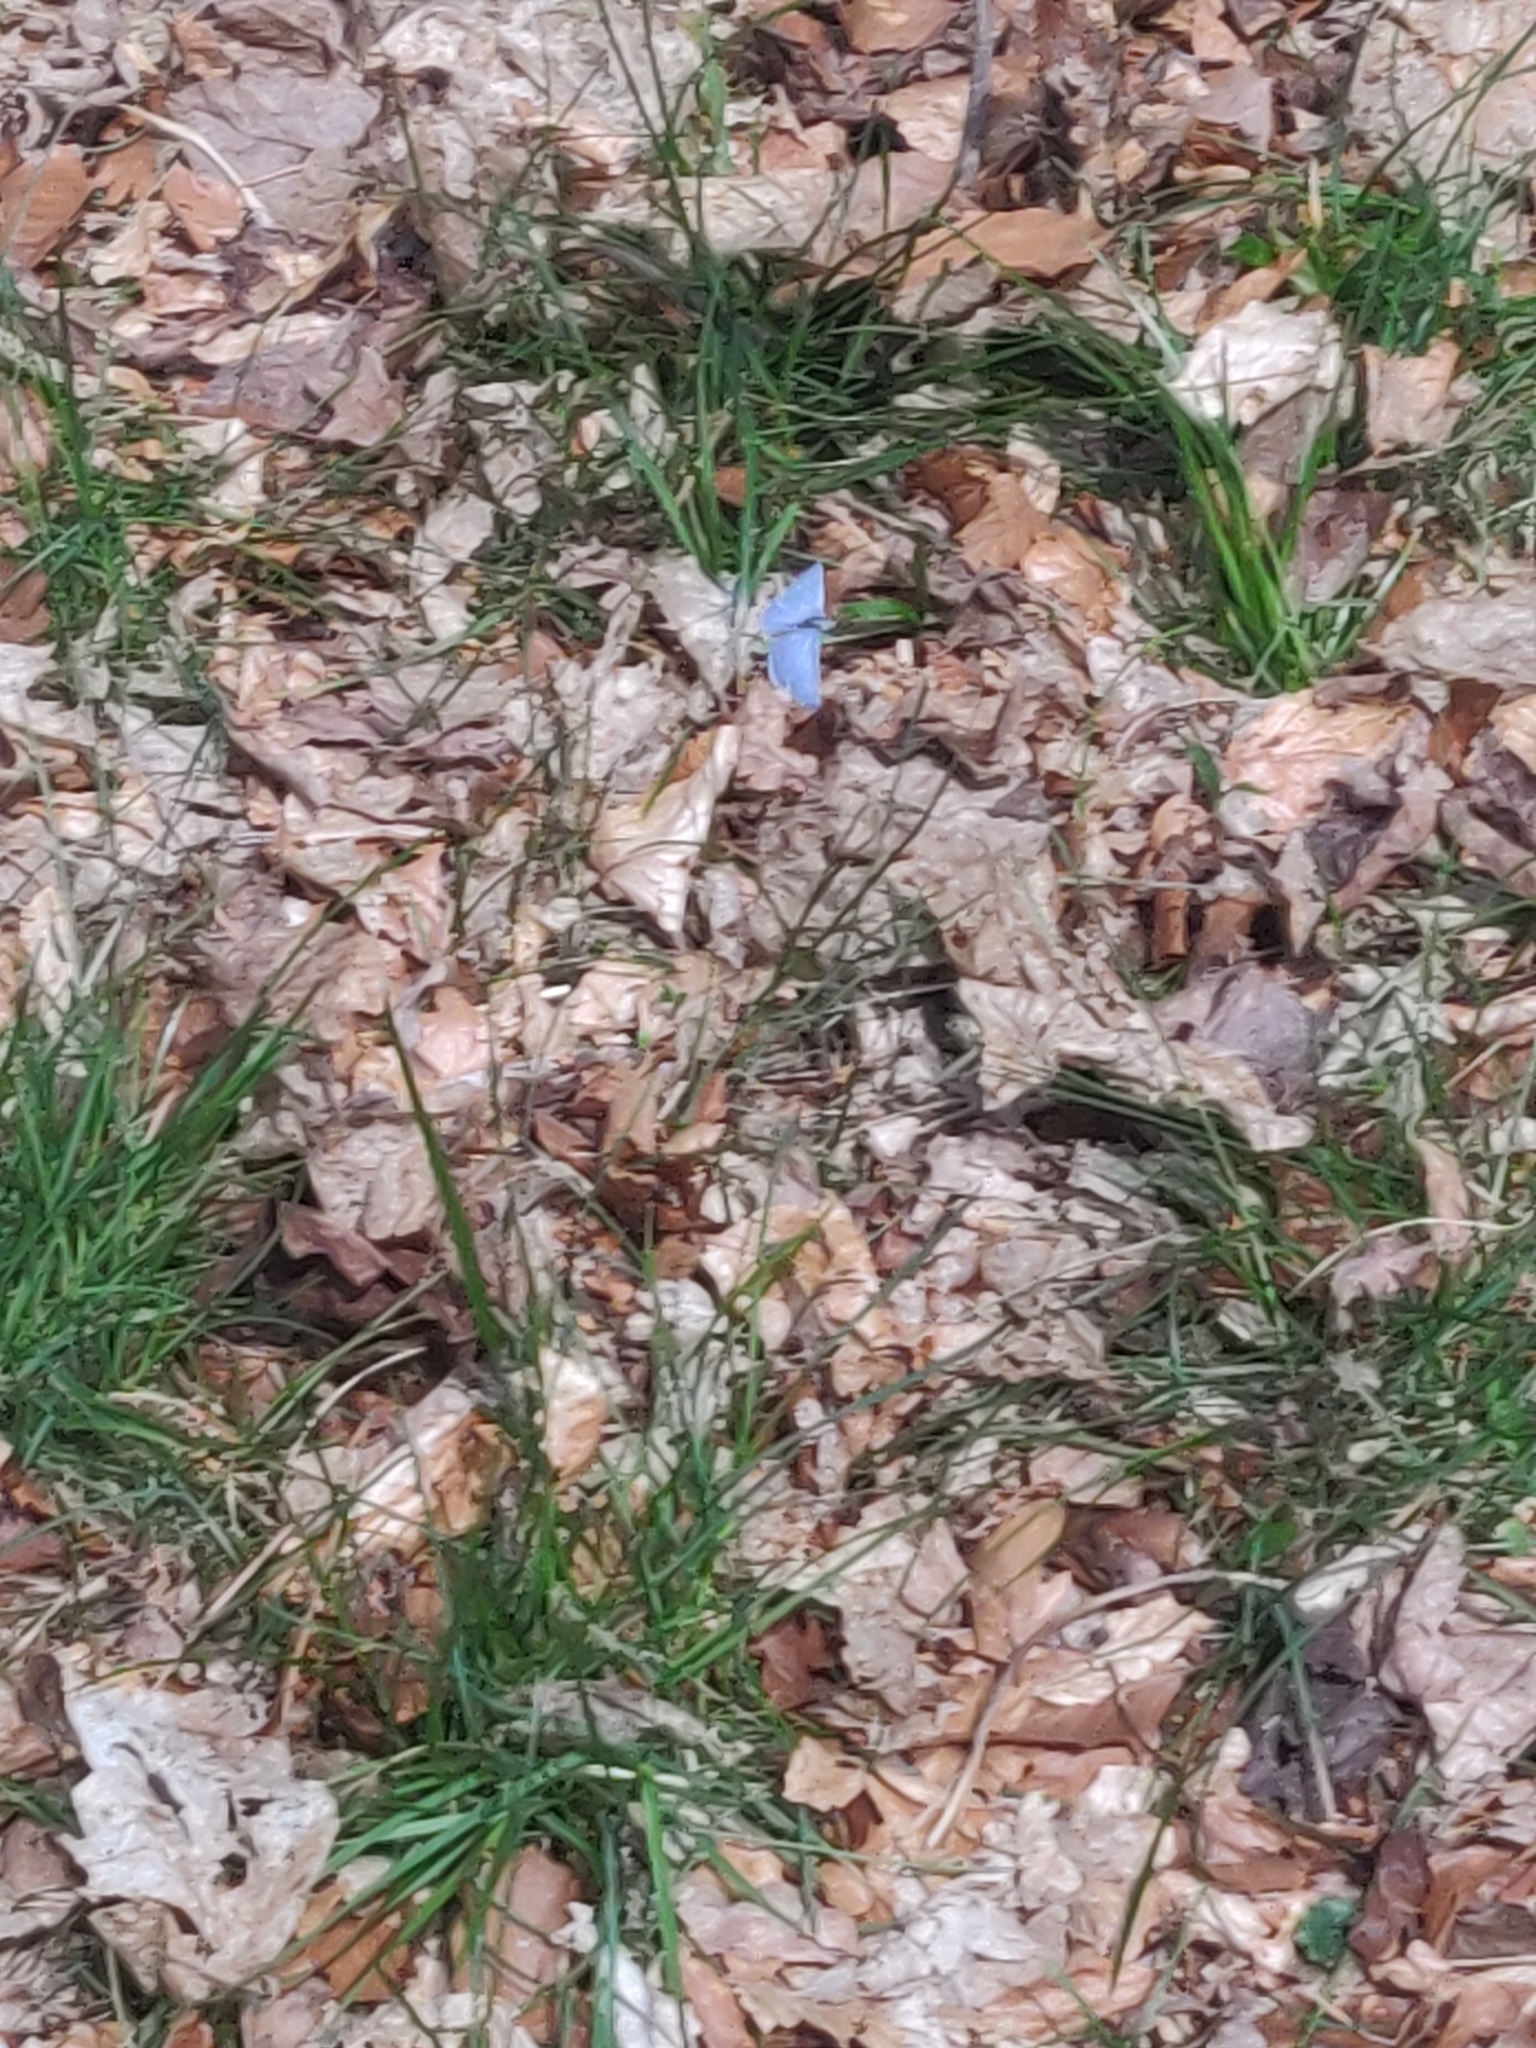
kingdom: Animalia
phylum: Arthropoda
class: Insecta
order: Lepidoptera
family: Lycaenidae
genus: Celastrina
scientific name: Celastrina argiolus
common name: Holly blue
